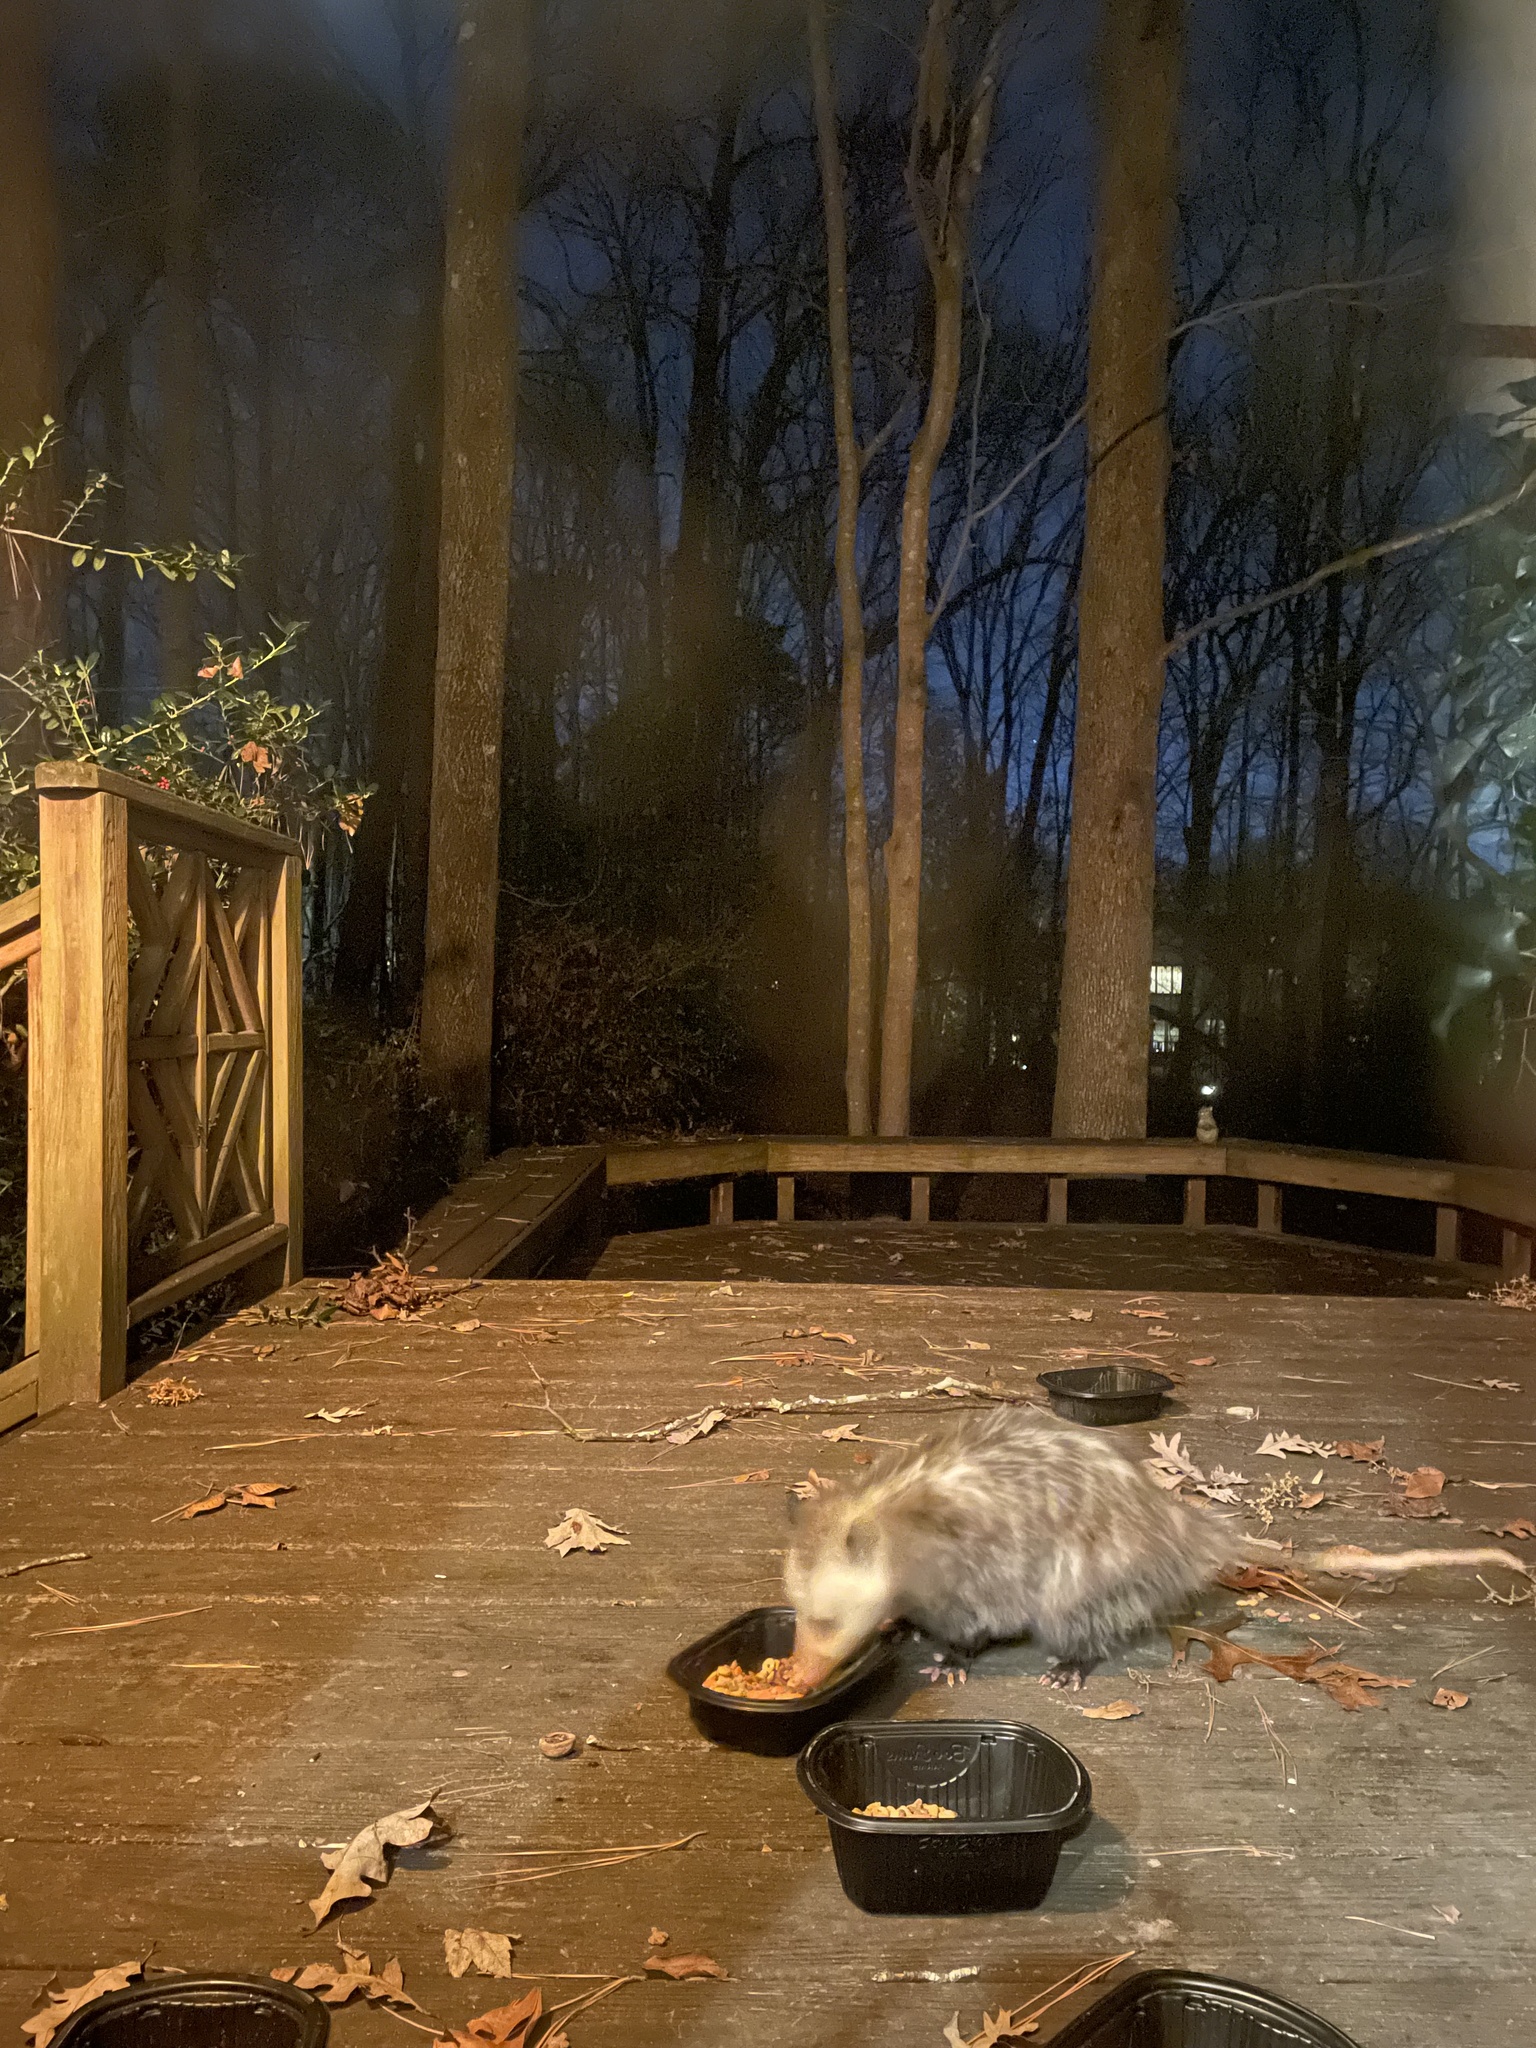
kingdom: Animalia
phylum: Chordata
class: Mammalia
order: Didelphimorphia
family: Didelphidae
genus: Didelphis
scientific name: Didelphis virginiana
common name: Virginia opossum
